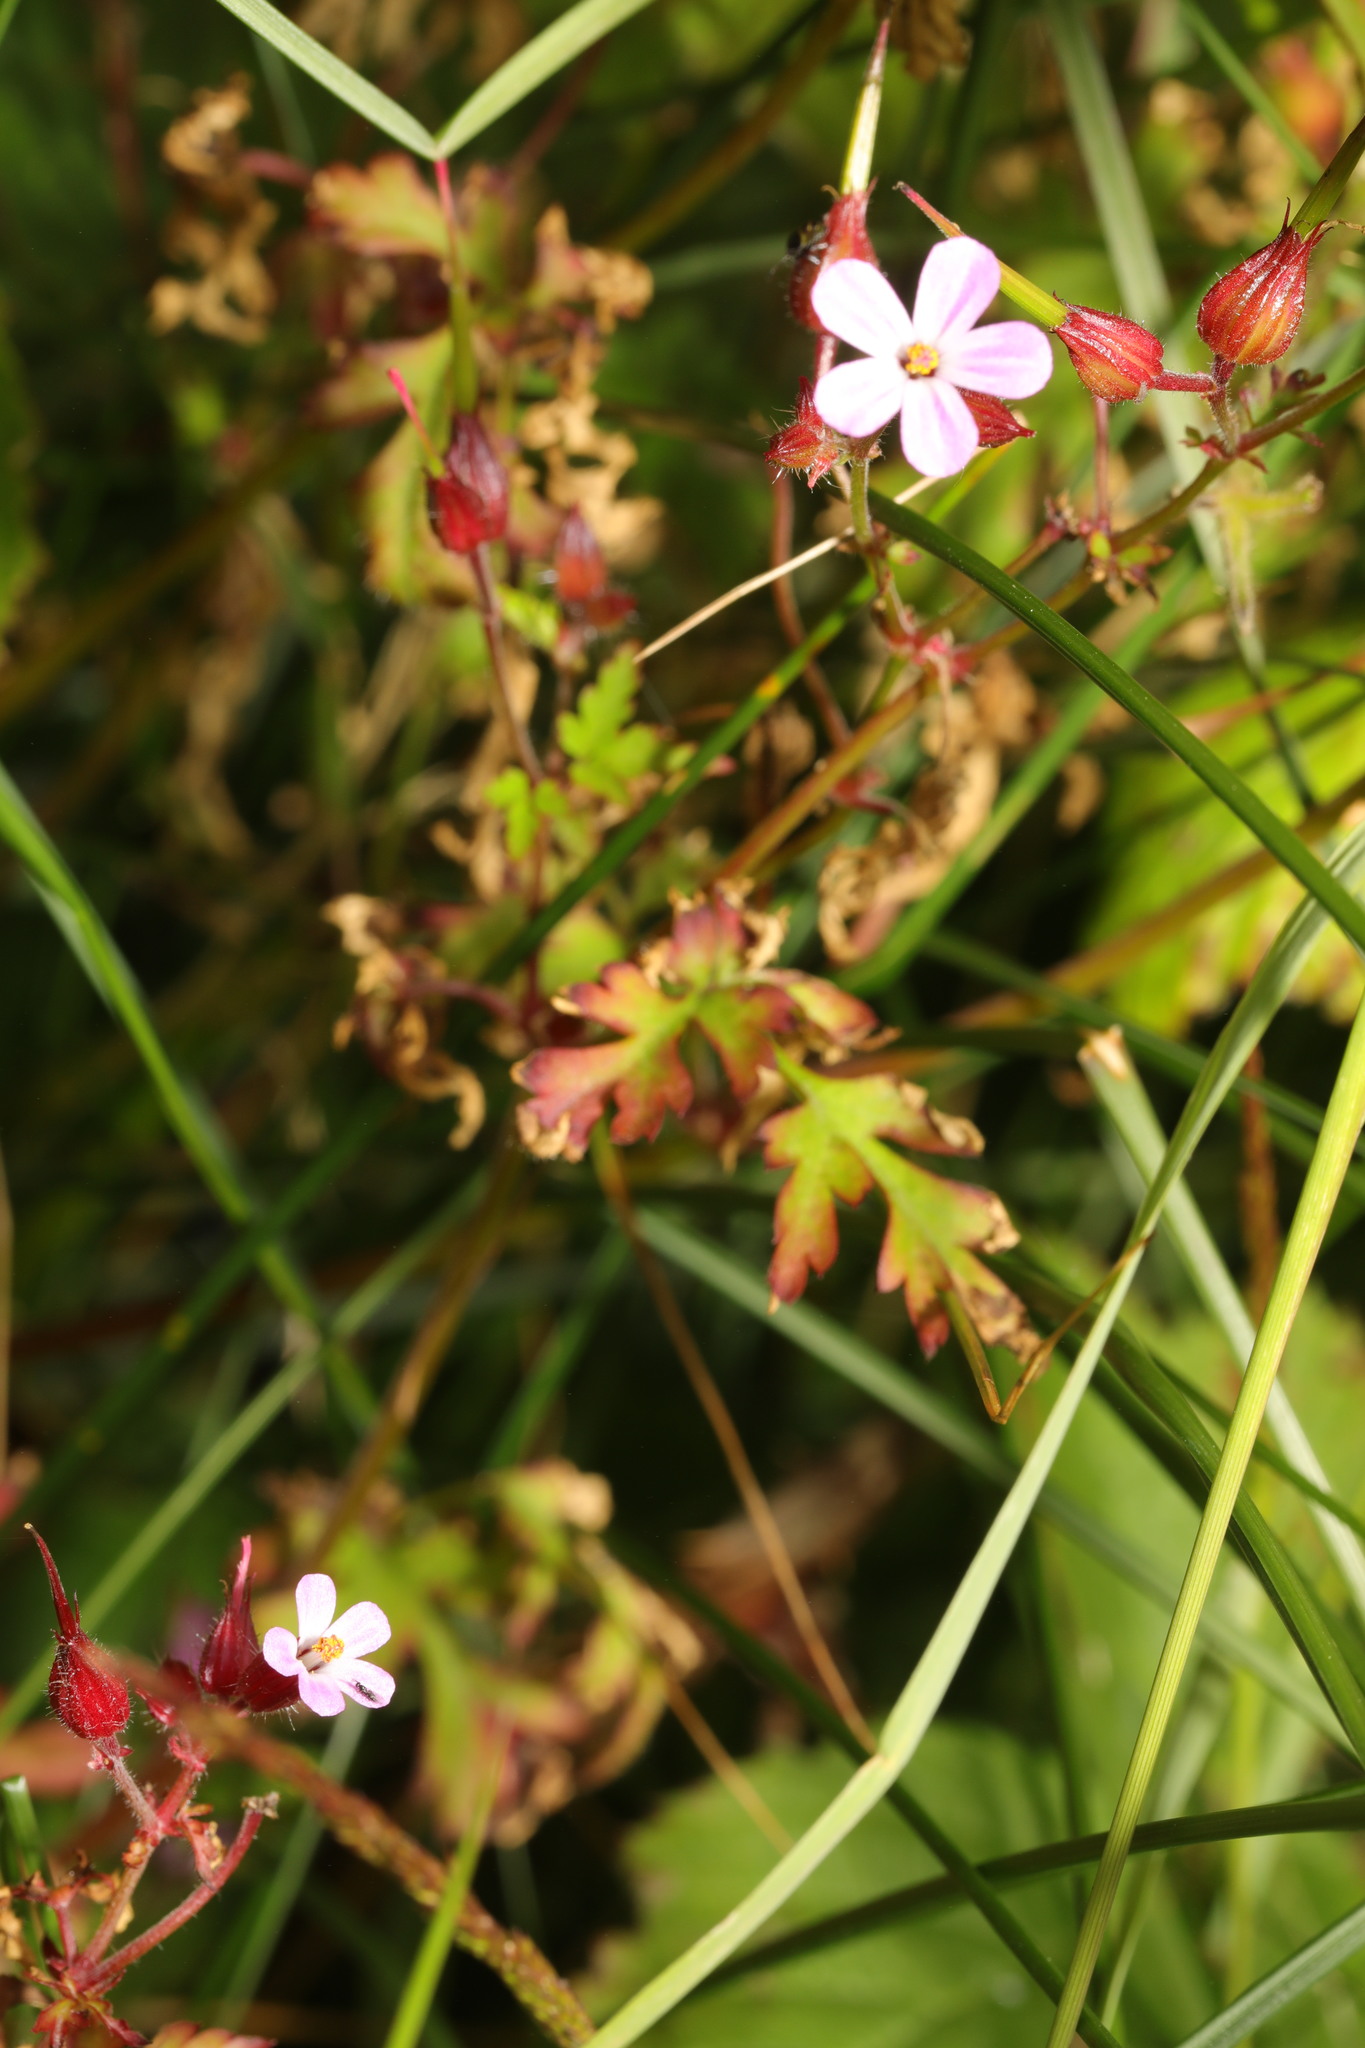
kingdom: Plantae
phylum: Tracheophyta
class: Magnoliopsida
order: Geraniales
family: Geraniaceae
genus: Geranium
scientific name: Geranium robertianum
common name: Herb-robert
